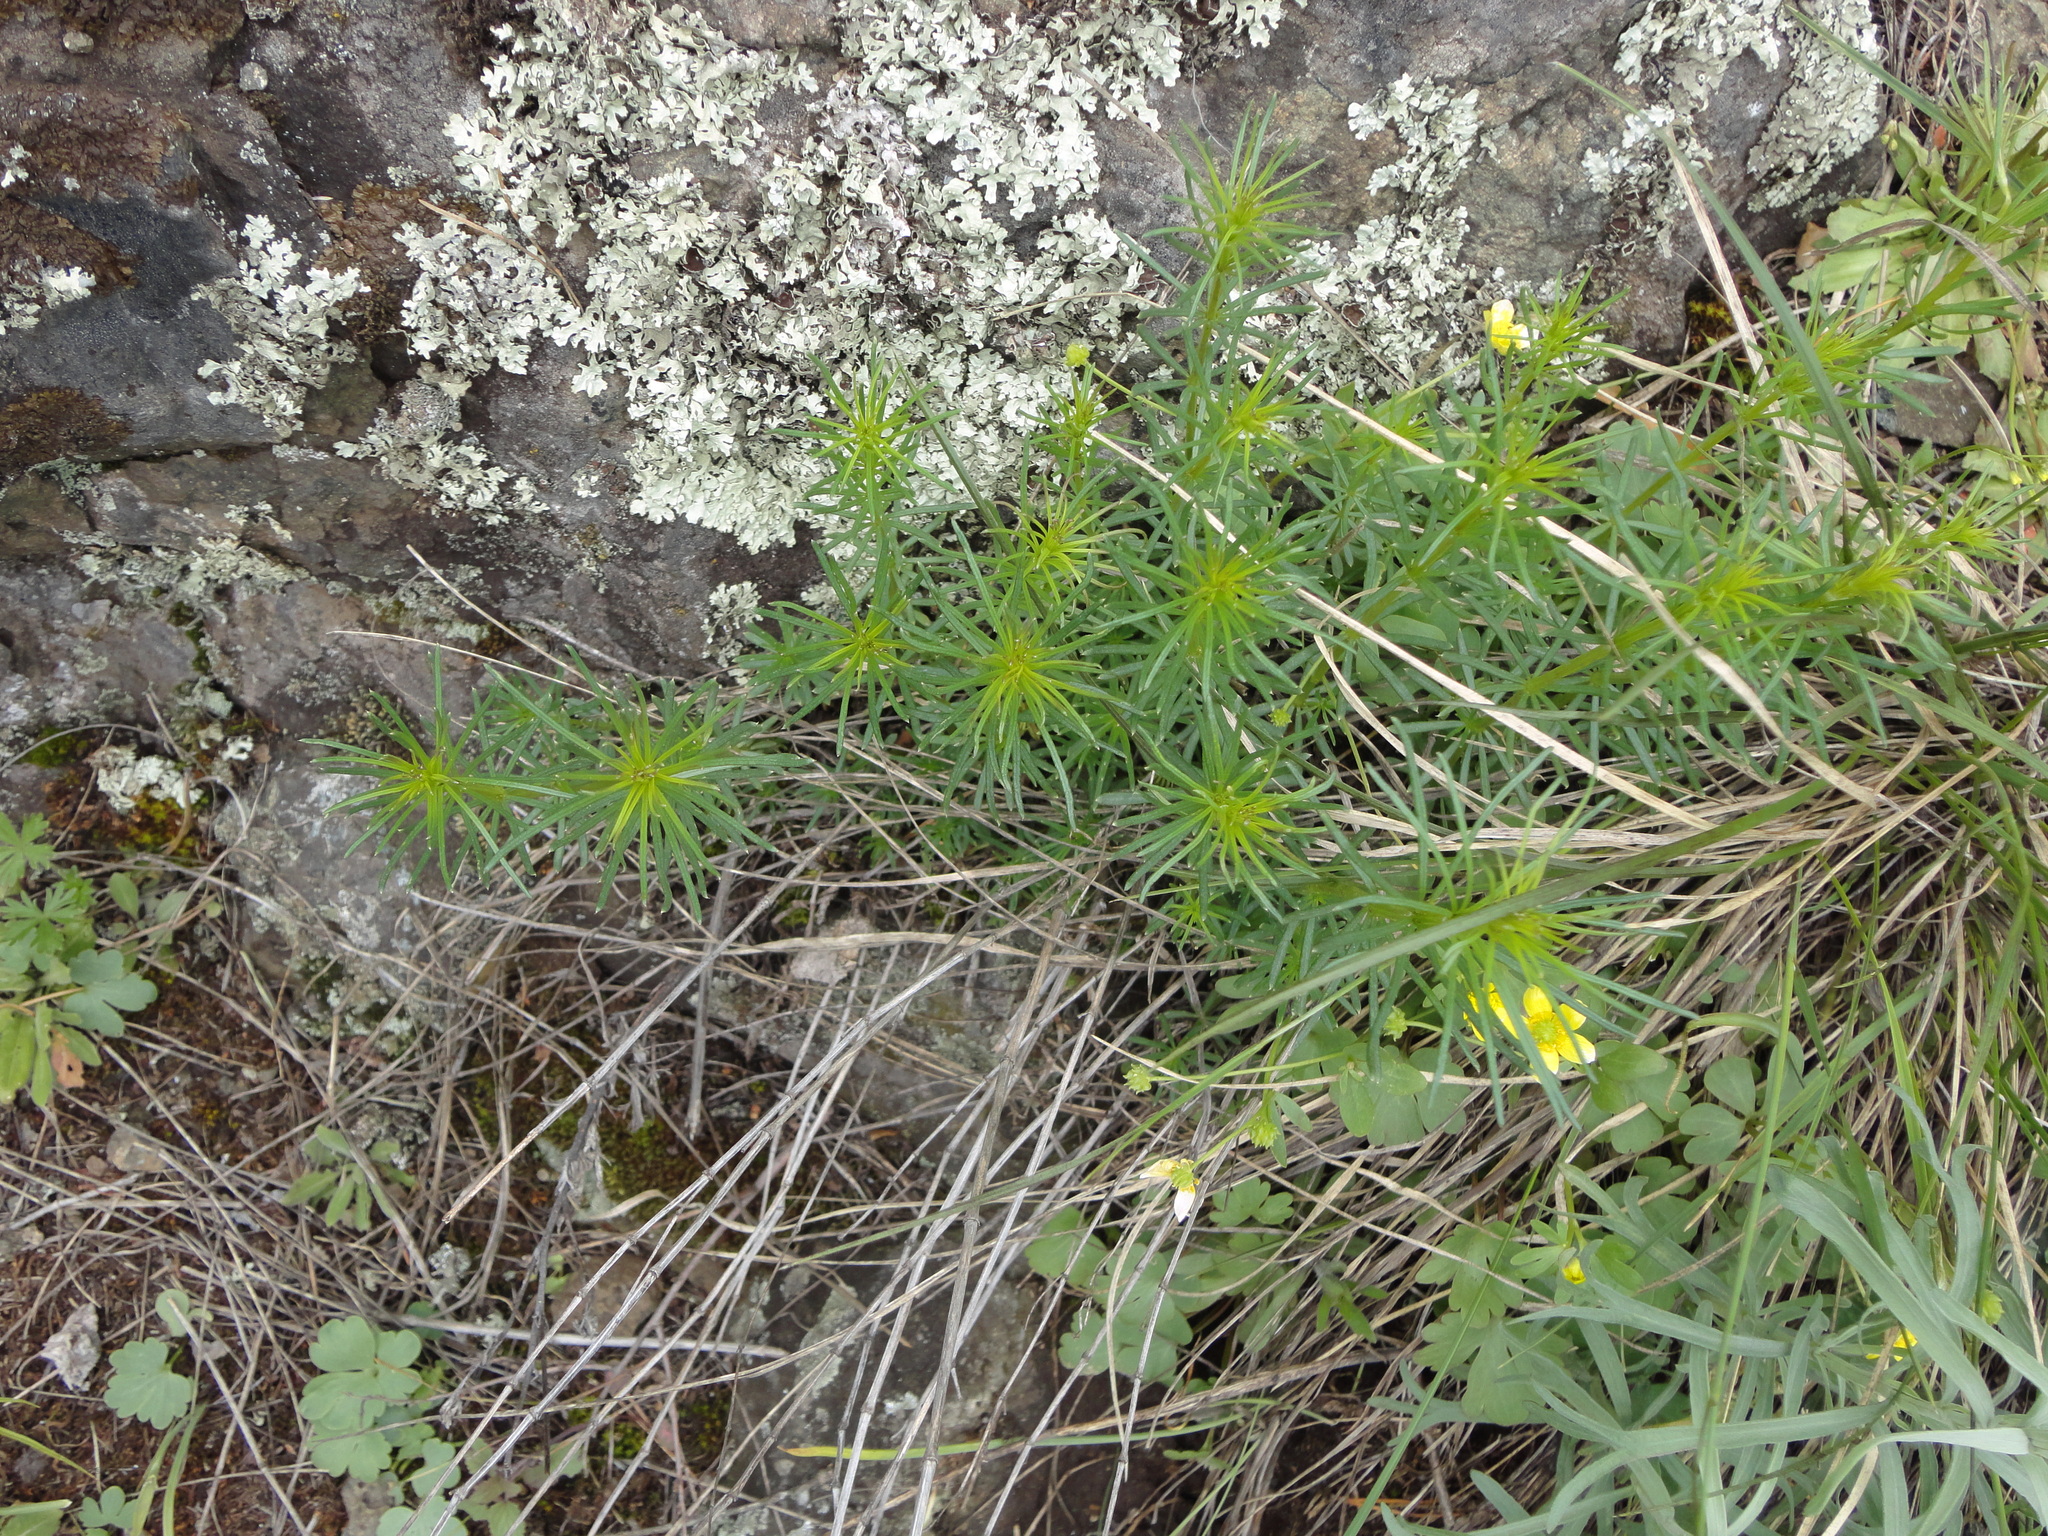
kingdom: Plantae
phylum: Tracheophyta
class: Magnoliopsida
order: Gentianales
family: Rubiaceae
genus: Galium
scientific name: Galium verum
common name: Lady's bedstraw
